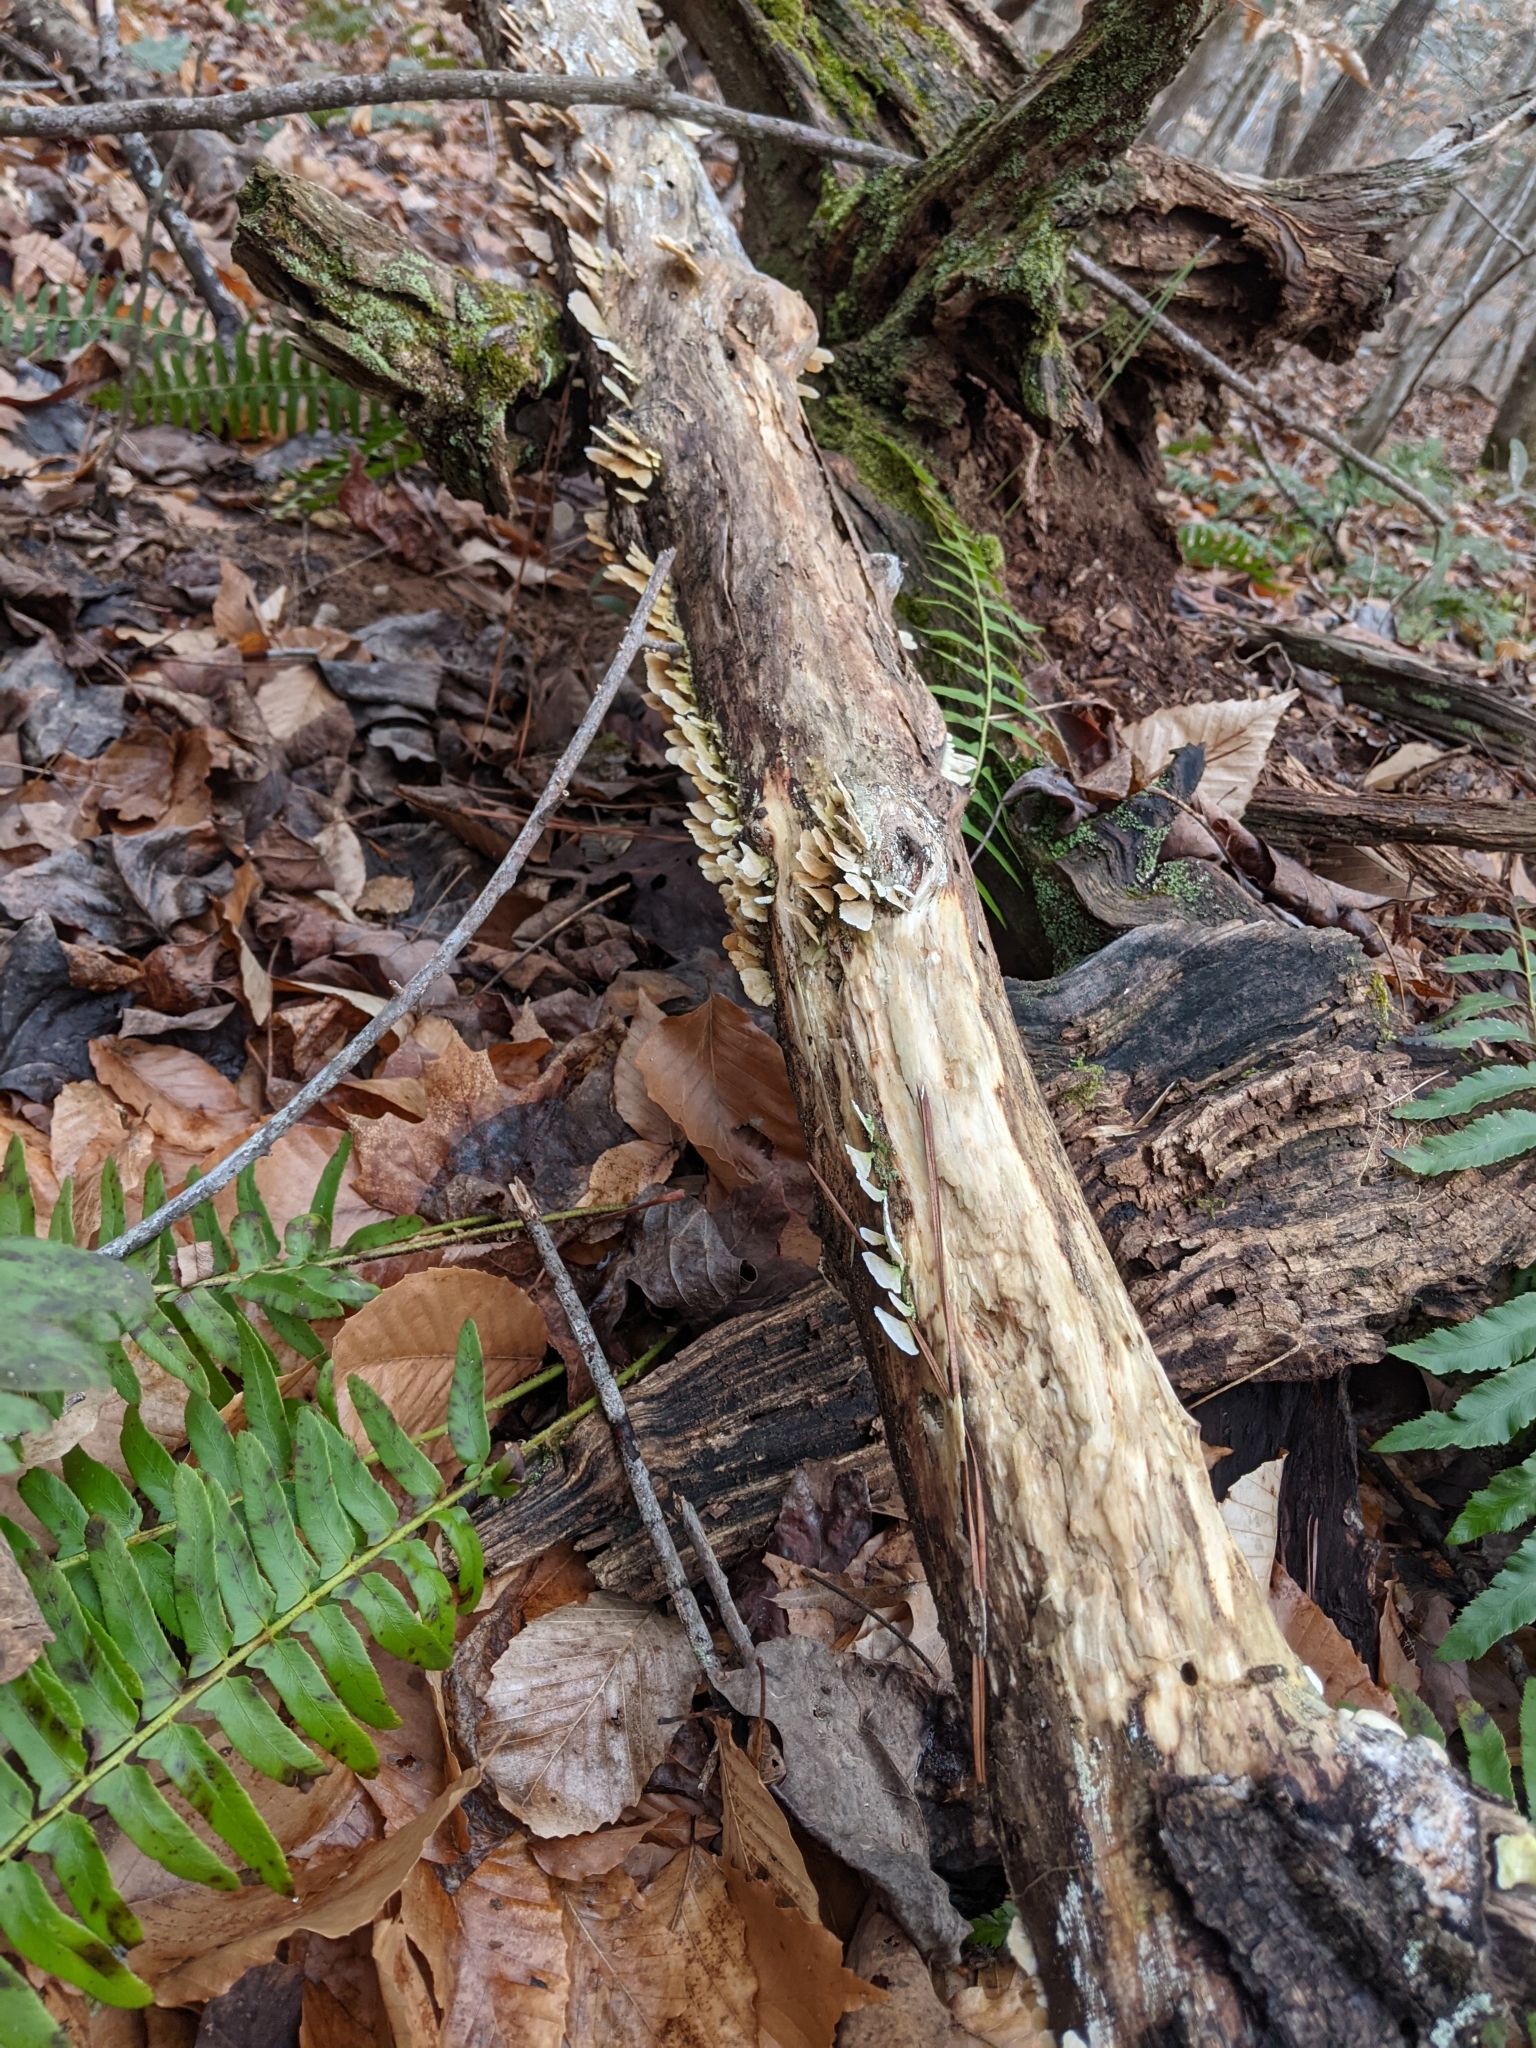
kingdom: Fungi
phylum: Basidiomycota
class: Agaricomycetes
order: Polyporales
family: Meruliaceae
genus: Phlebia
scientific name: Phlebia tremellosa
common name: Jelly rot
